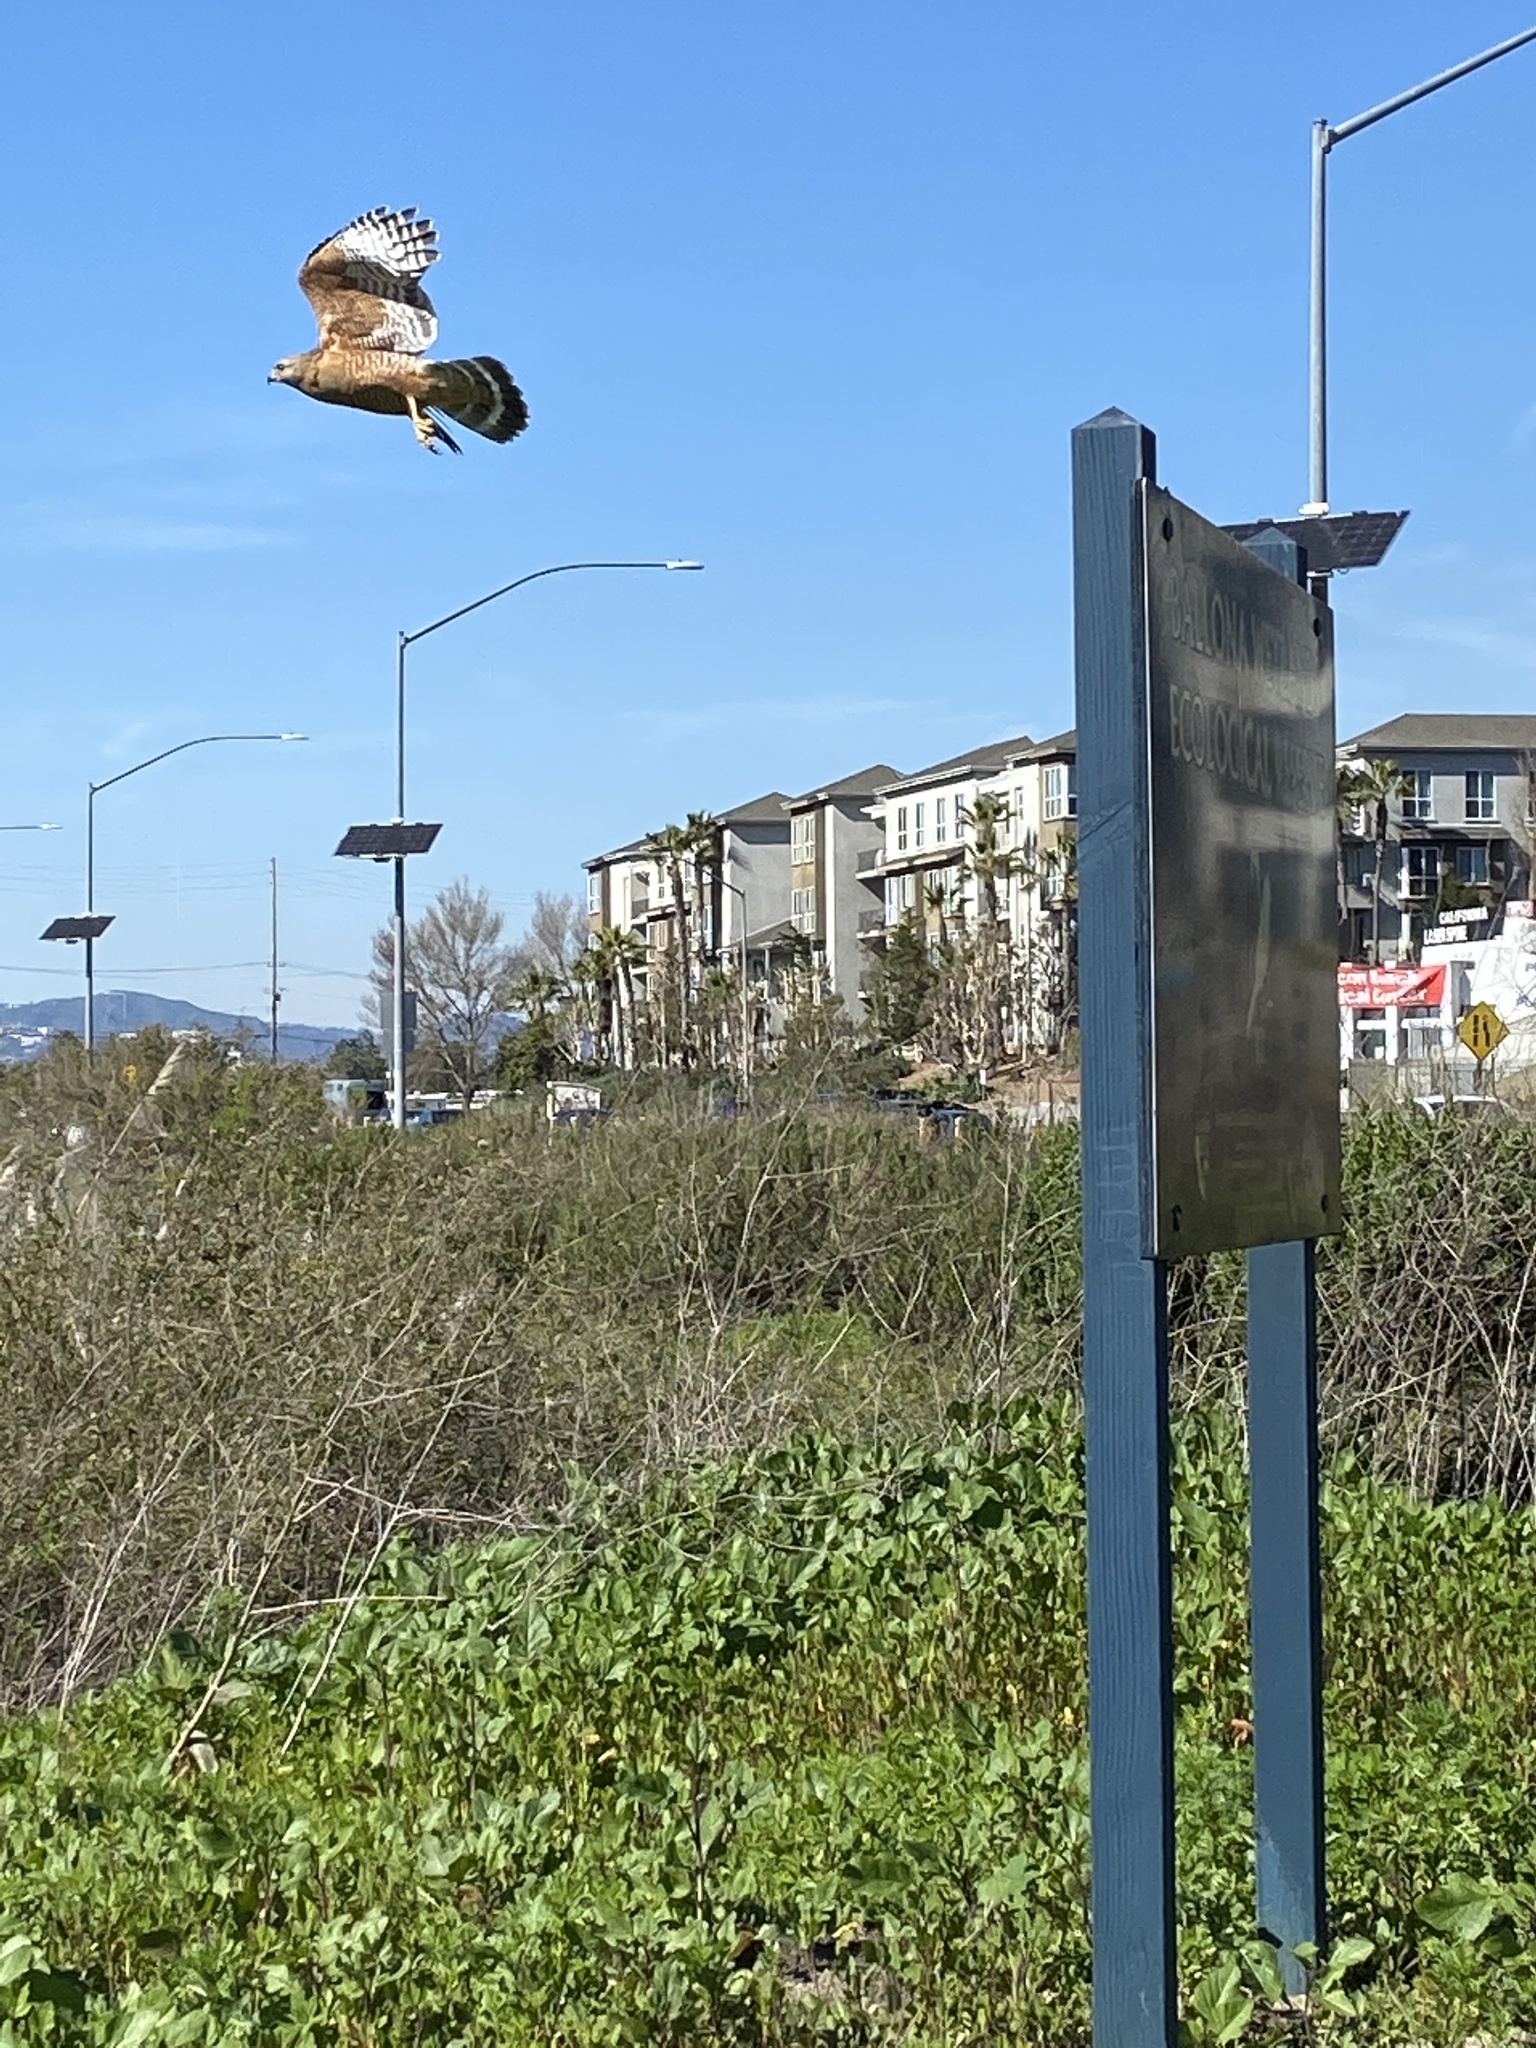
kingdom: Animalia
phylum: Chordata
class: Aves
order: Accipitriformes
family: Accipitridae
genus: Buteo
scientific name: Buteo lineatus
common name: Red-shouldered hawk
